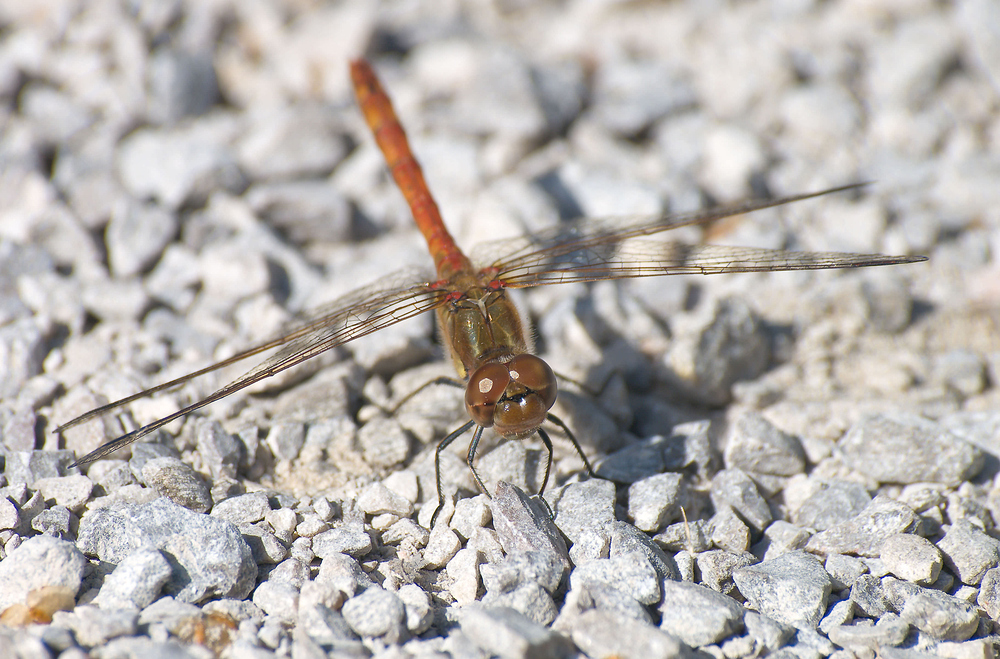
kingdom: Animalia
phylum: Arthropoda
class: Insecta
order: Odonata
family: Libellulidae
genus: Sympetrum
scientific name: Sympetrum striolatum
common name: Common darter
